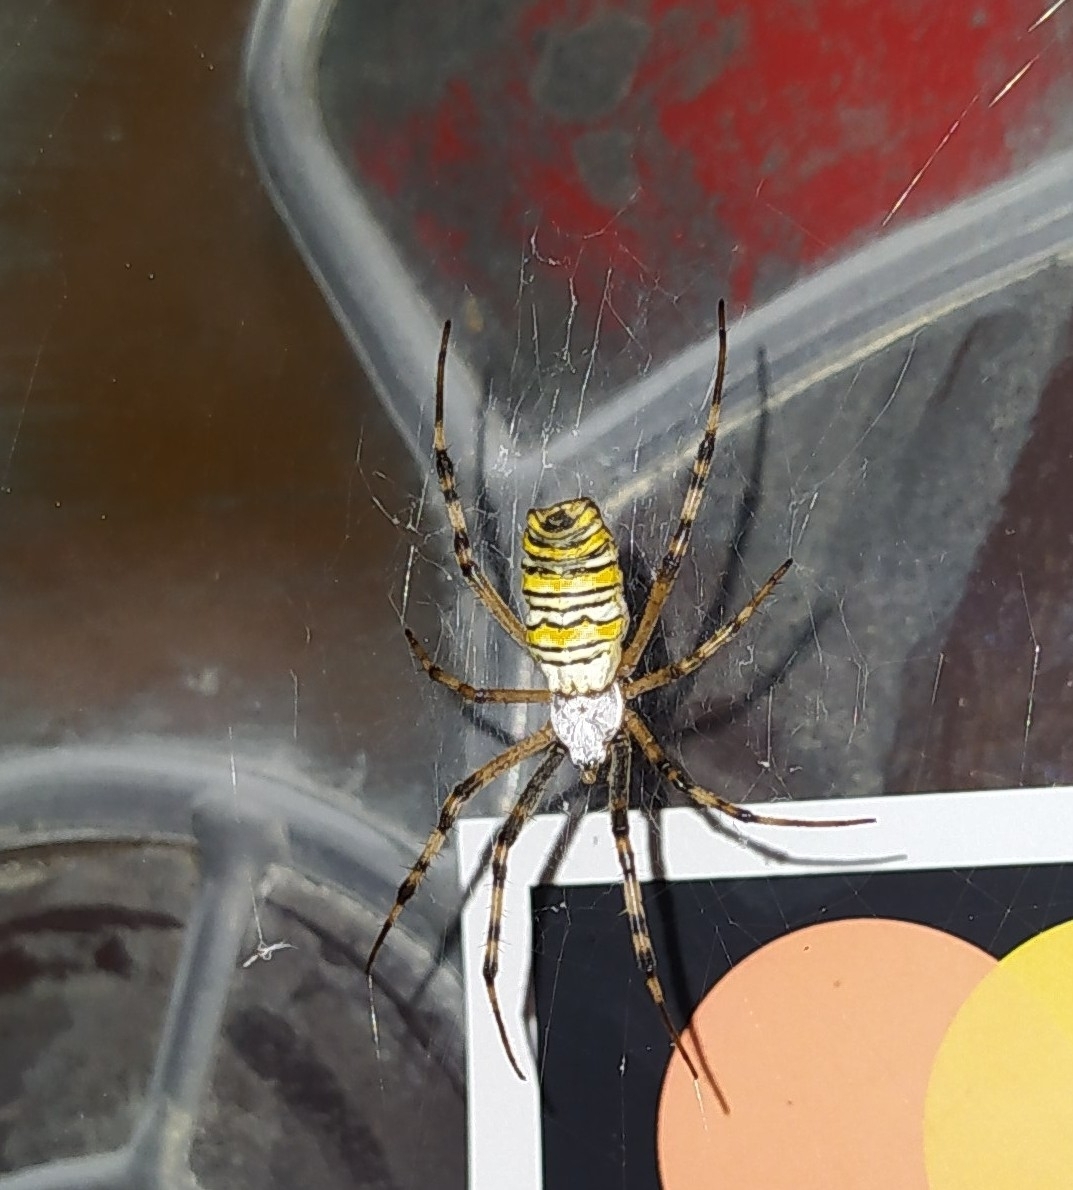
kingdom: Animalia
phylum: Arthropoda
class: Arachnida
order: Araneae
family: Araneidae
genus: Argiope
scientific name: Argiope bruennichi
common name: Wasp spider
